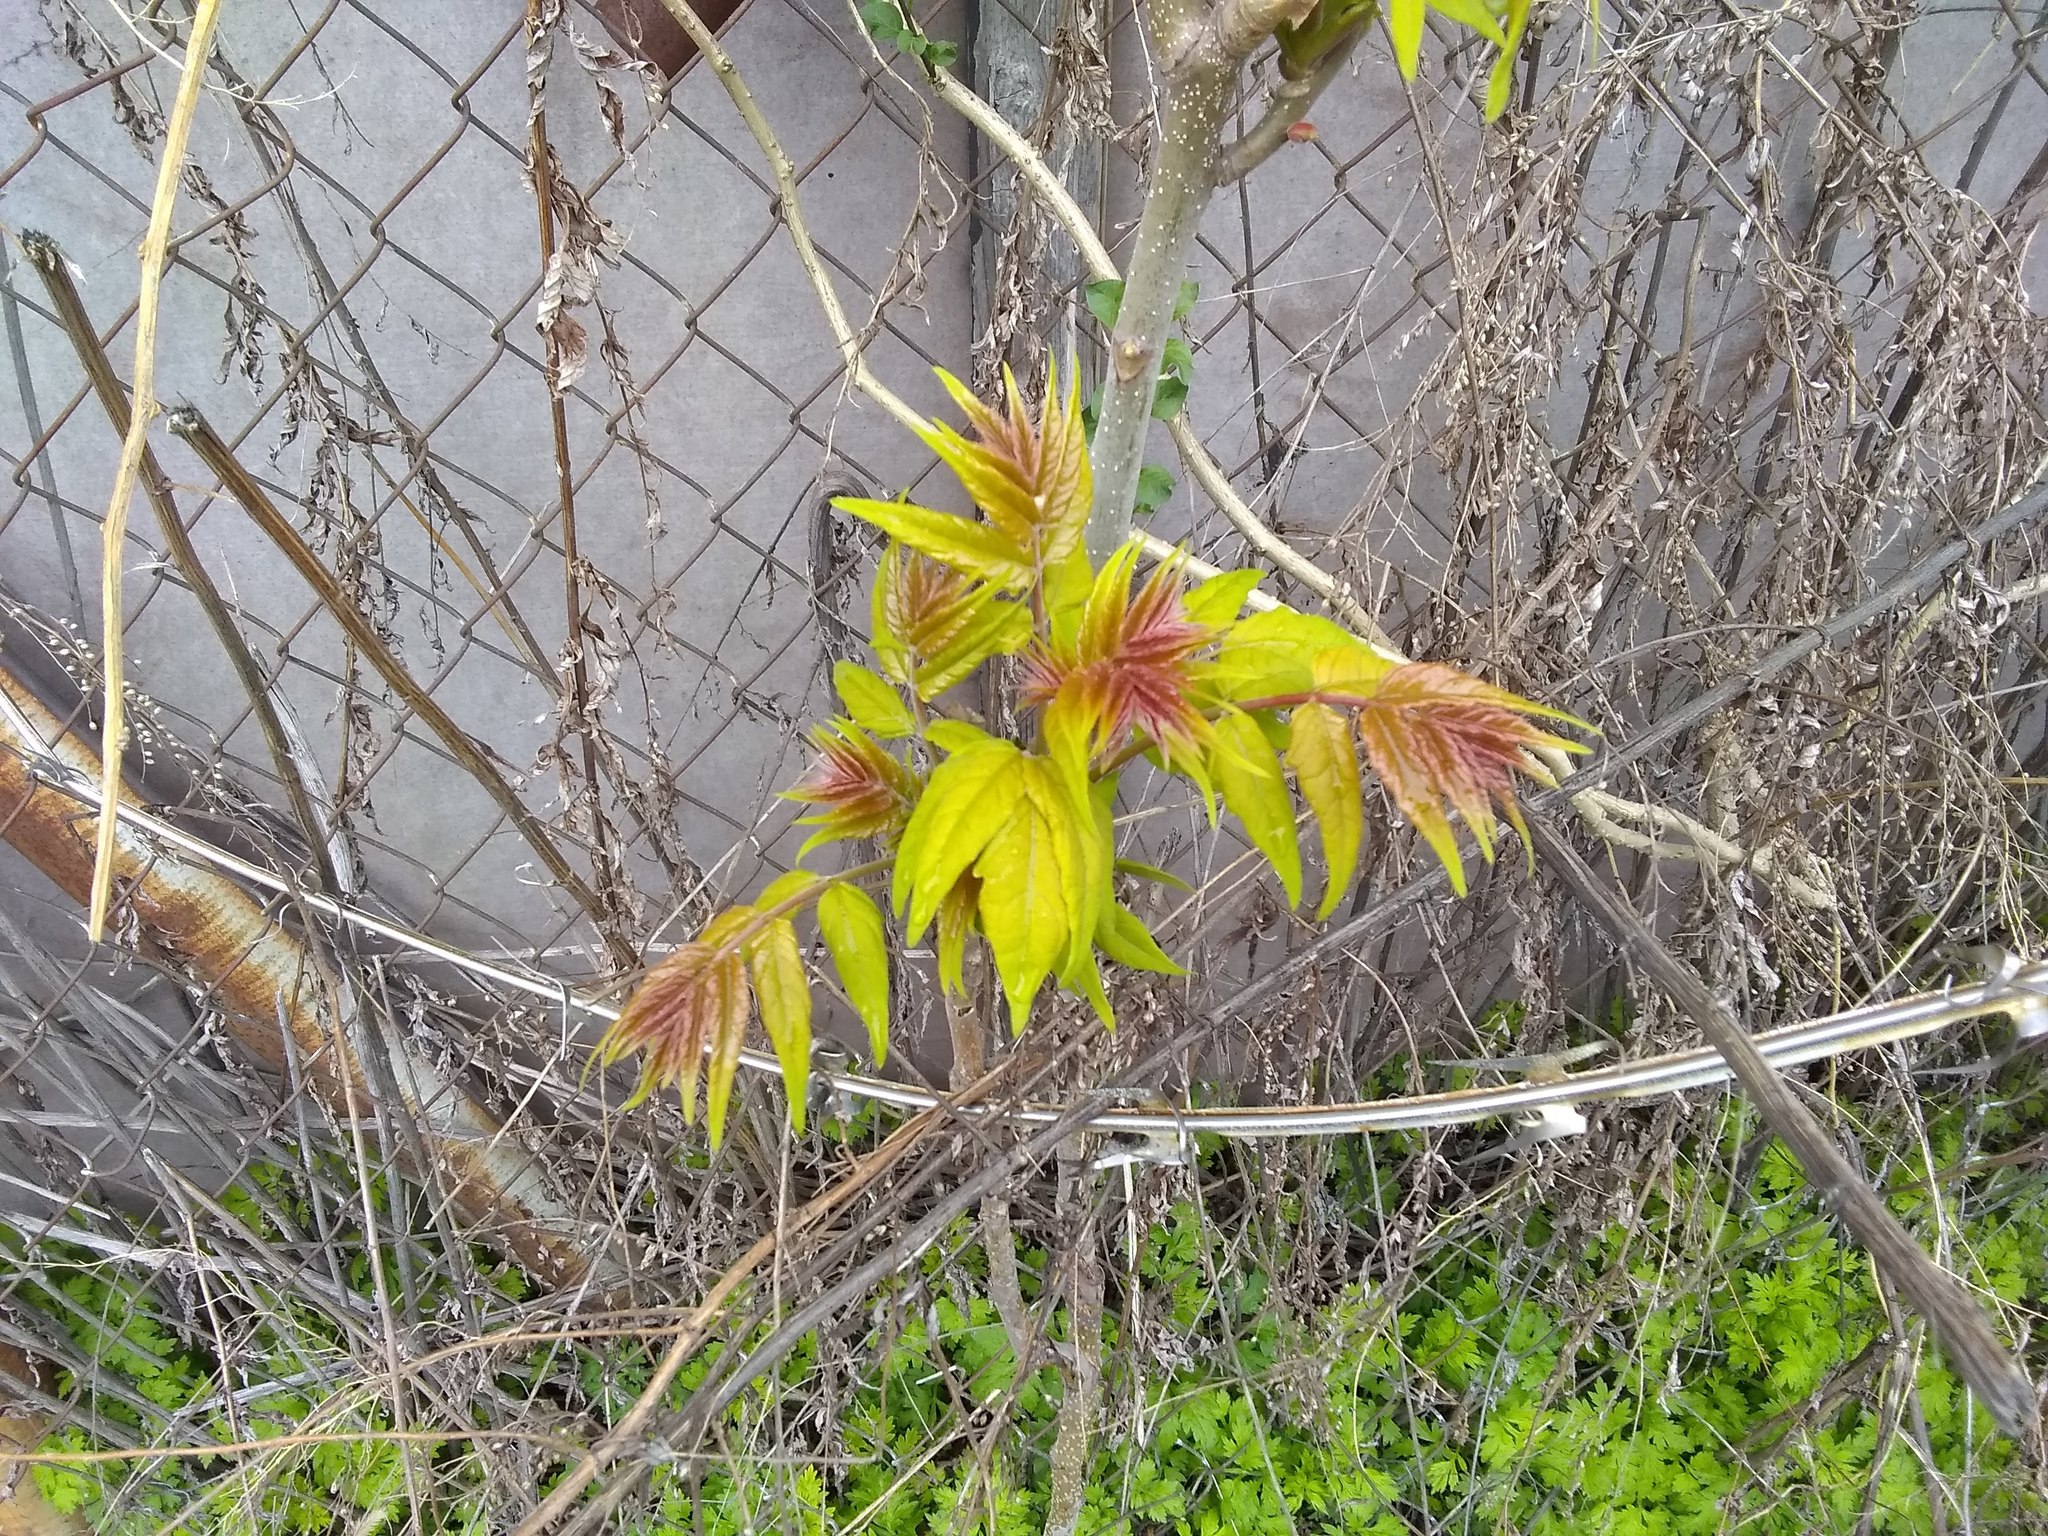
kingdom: Plantae
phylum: Tracheophyta
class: Magnoliopsida
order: Sapindales
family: Simaroubaceae
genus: Ailanthus
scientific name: Ailanthus altissima
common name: Tree-of-heaven
